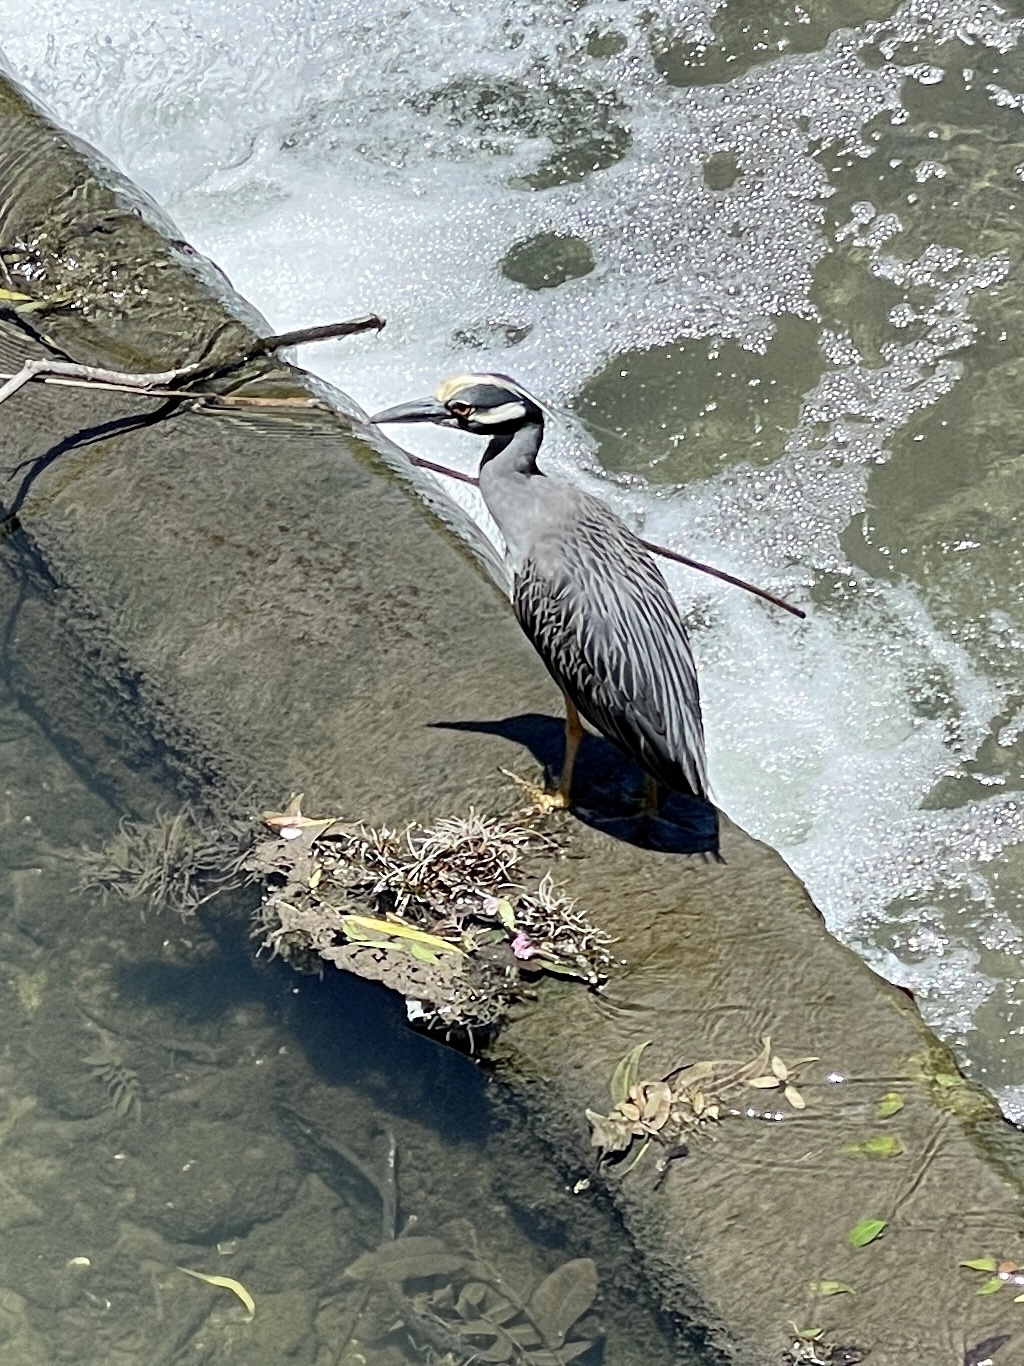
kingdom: Animalia
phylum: Chordata
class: Aves
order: Pelecaniformes
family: Ardeidae
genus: Nyctanassa
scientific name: Nyctanassa violacea
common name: Yellow-crowned night heron
